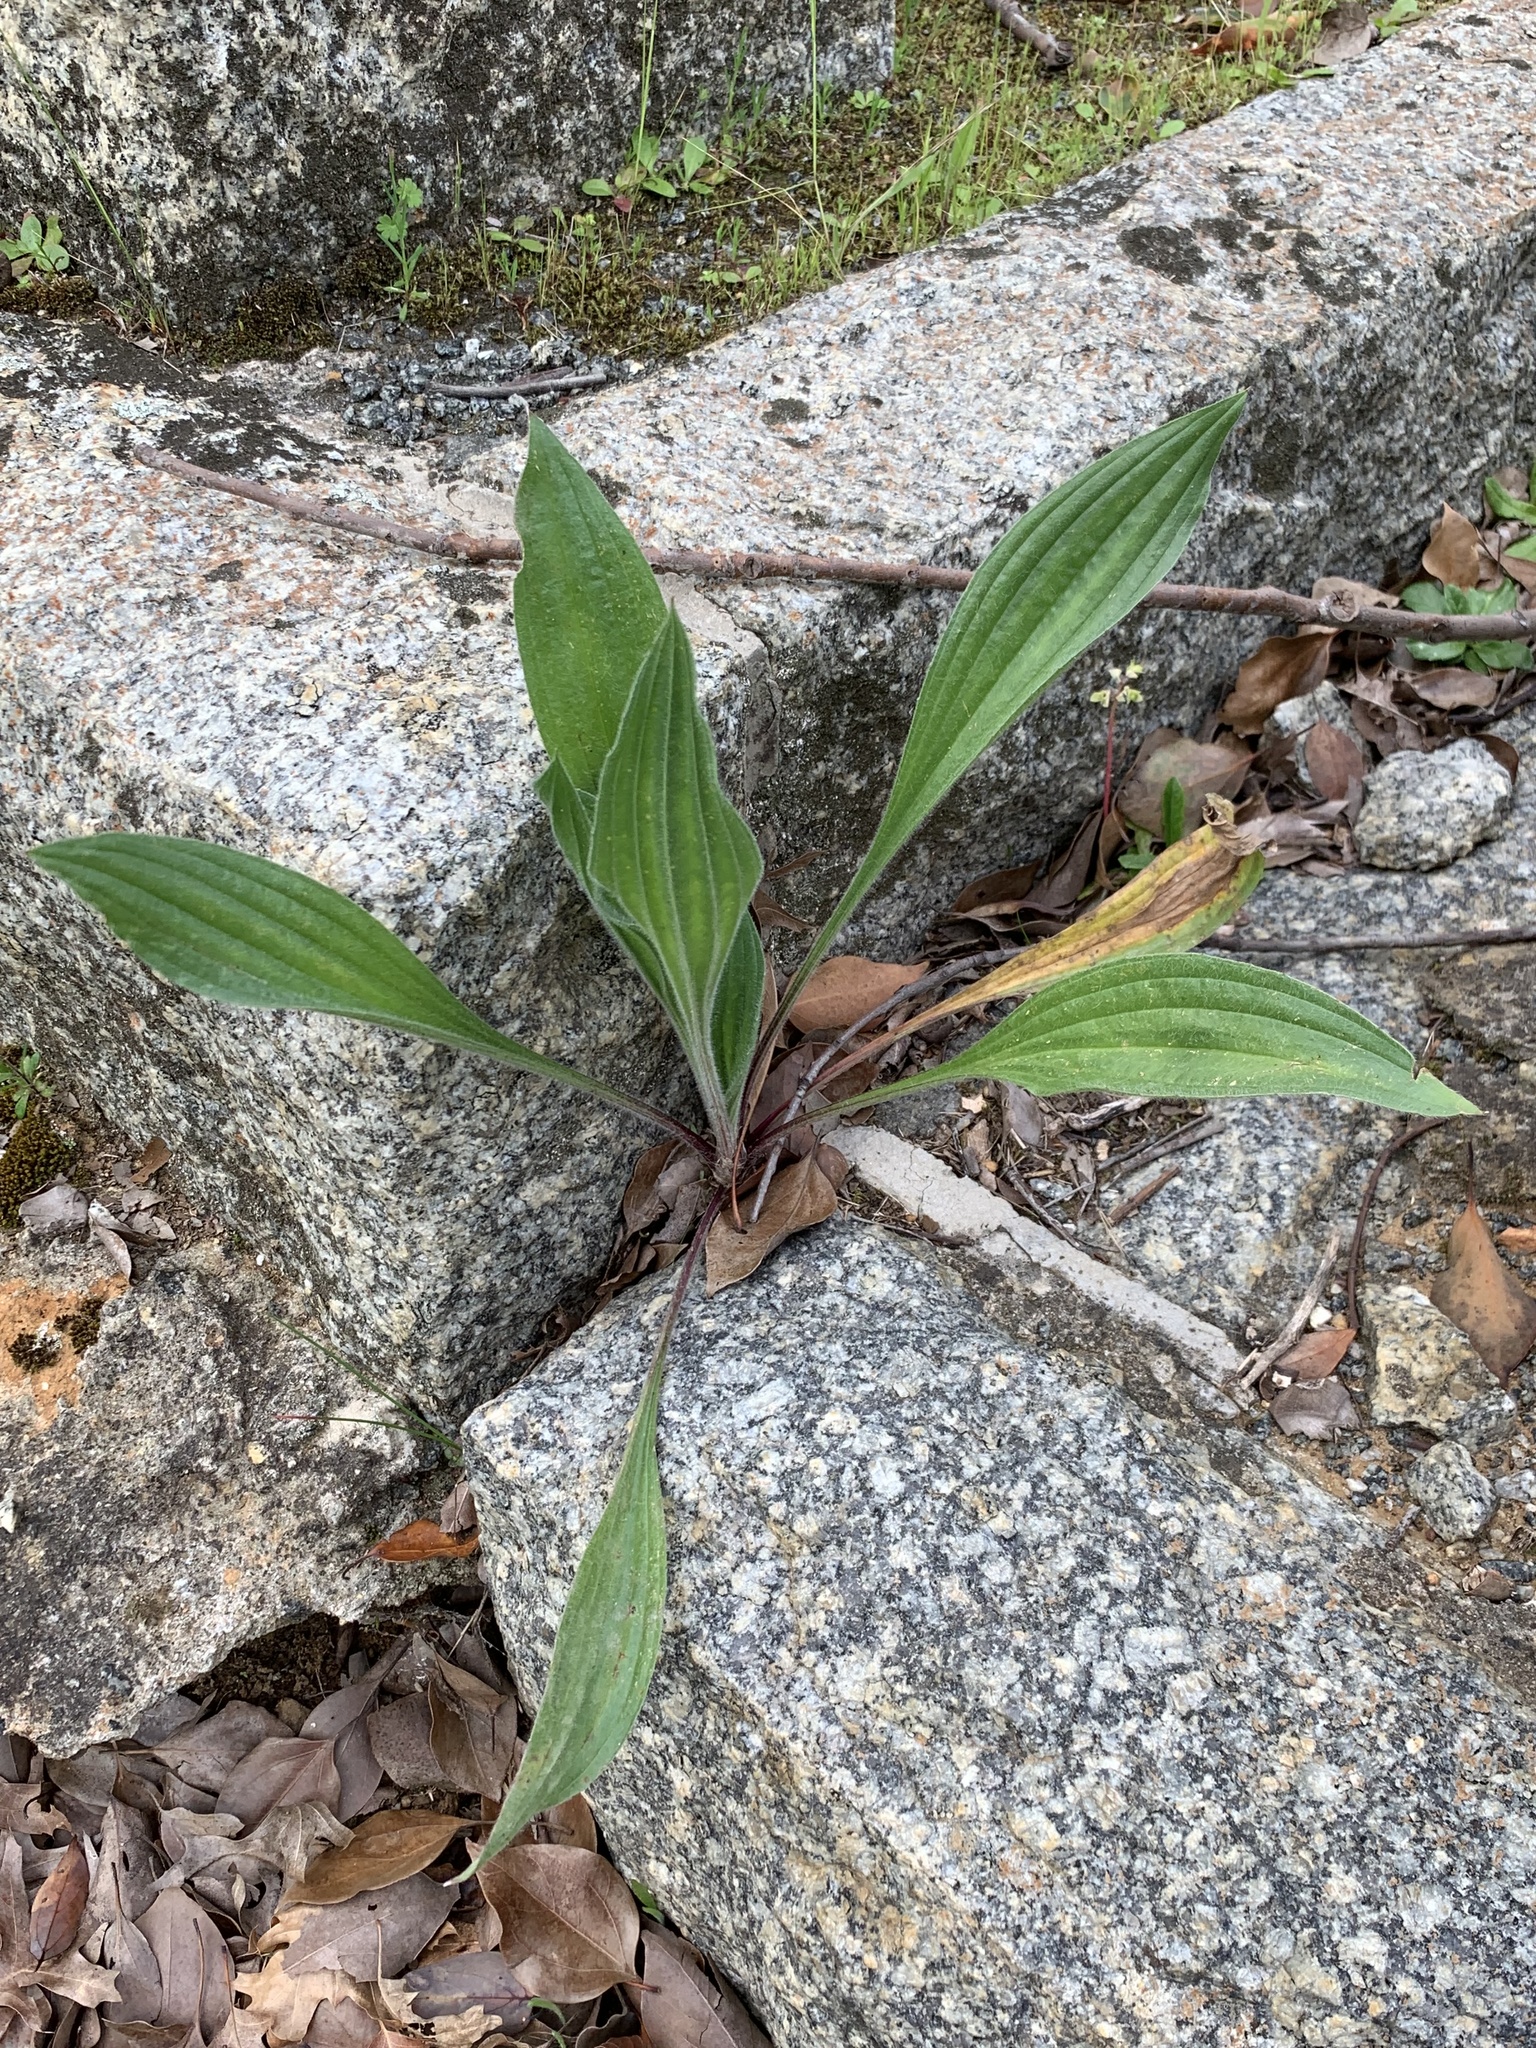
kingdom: Plantae
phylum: Tracheophyta
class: Magnoliopsida
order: Lamiales
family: Plantaginaceae
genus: Plantago
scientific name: Plantago lanceolata
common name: Ribwort plantain
